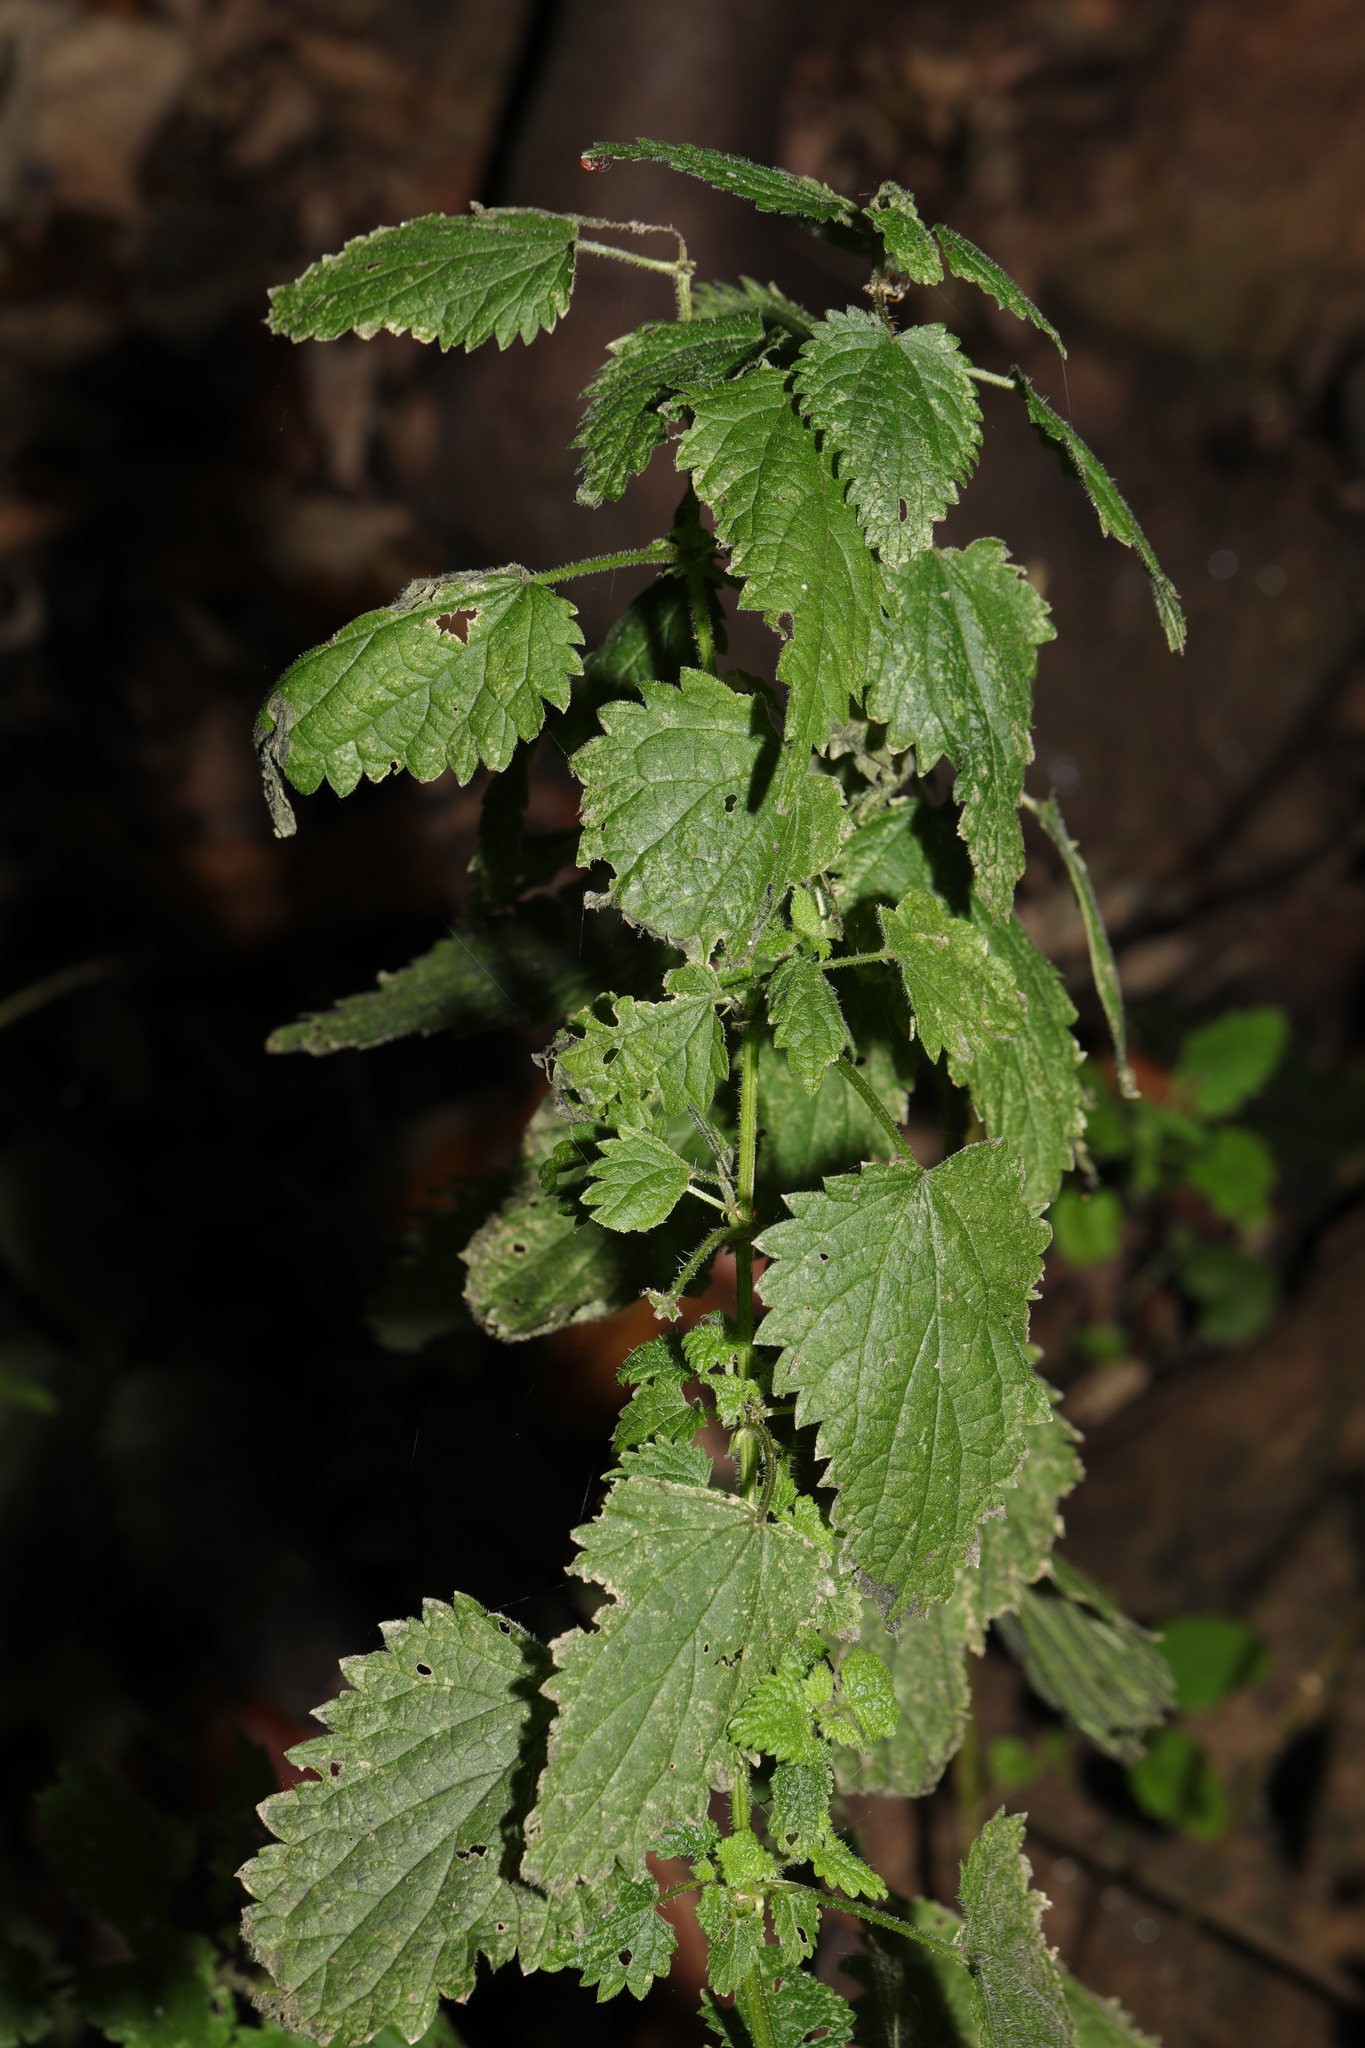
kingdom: Plantae
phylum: Tracheophyta
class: Magnoliopsida
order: Rosales
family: Urticaceae
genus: Urtica
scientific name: Urtica dioica
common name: Common nettle
